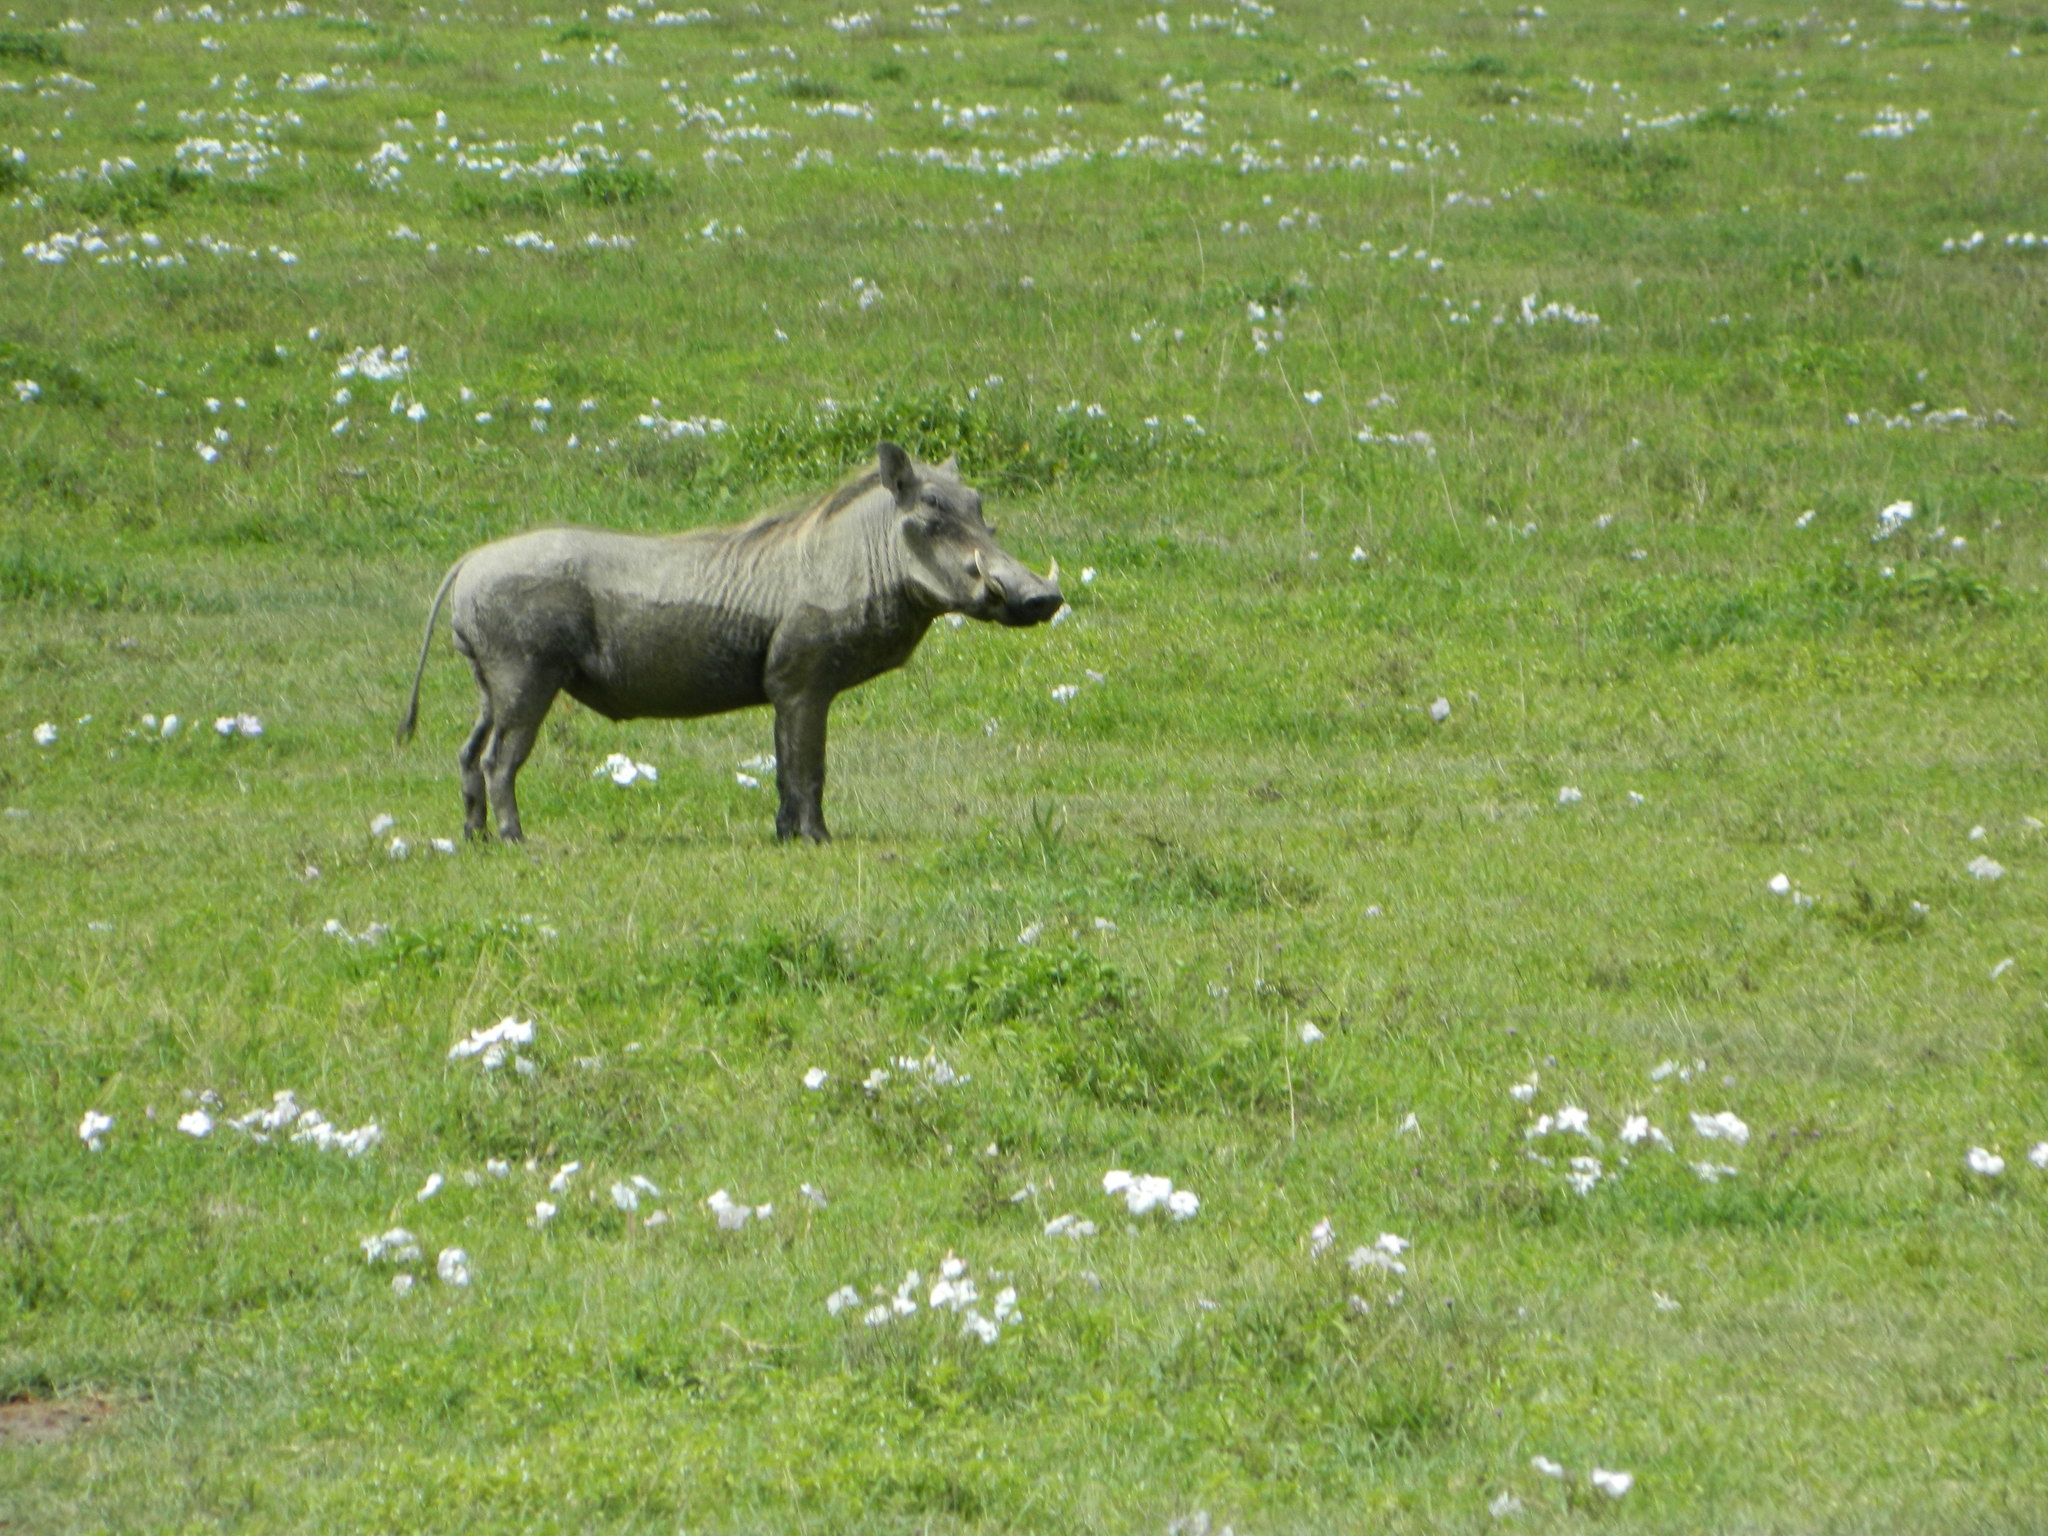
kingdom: Animalia
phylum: Chordata
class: Mammalia
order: Artiodactyla
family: Suidae
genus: Phacochoerus
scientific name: Phacochoerus africanus
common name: Common warthog
